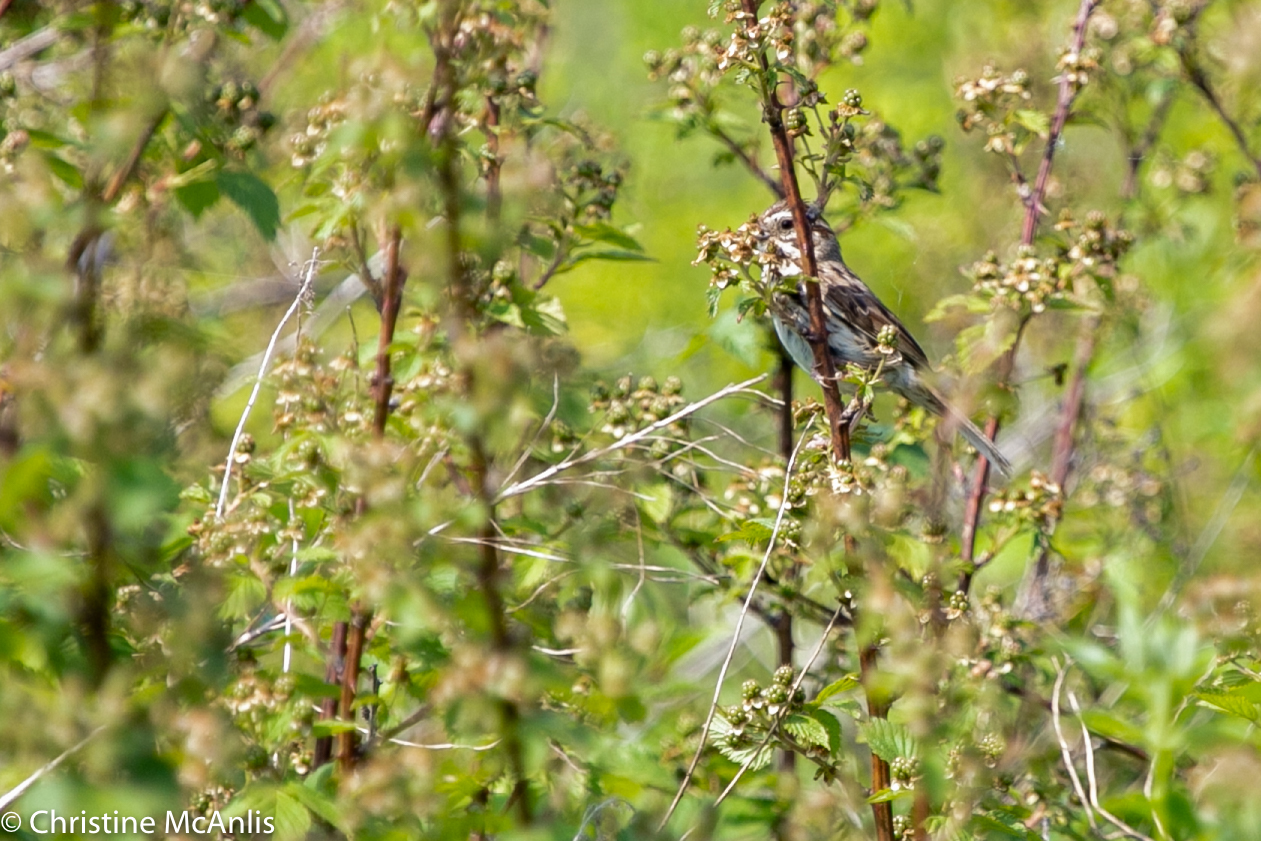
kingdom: Animalia
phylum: Chordata
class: Aves
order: Passeriformes
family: Passerellidae
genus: Melospiza
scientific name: Melospiza melodia
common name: Song sparrow
